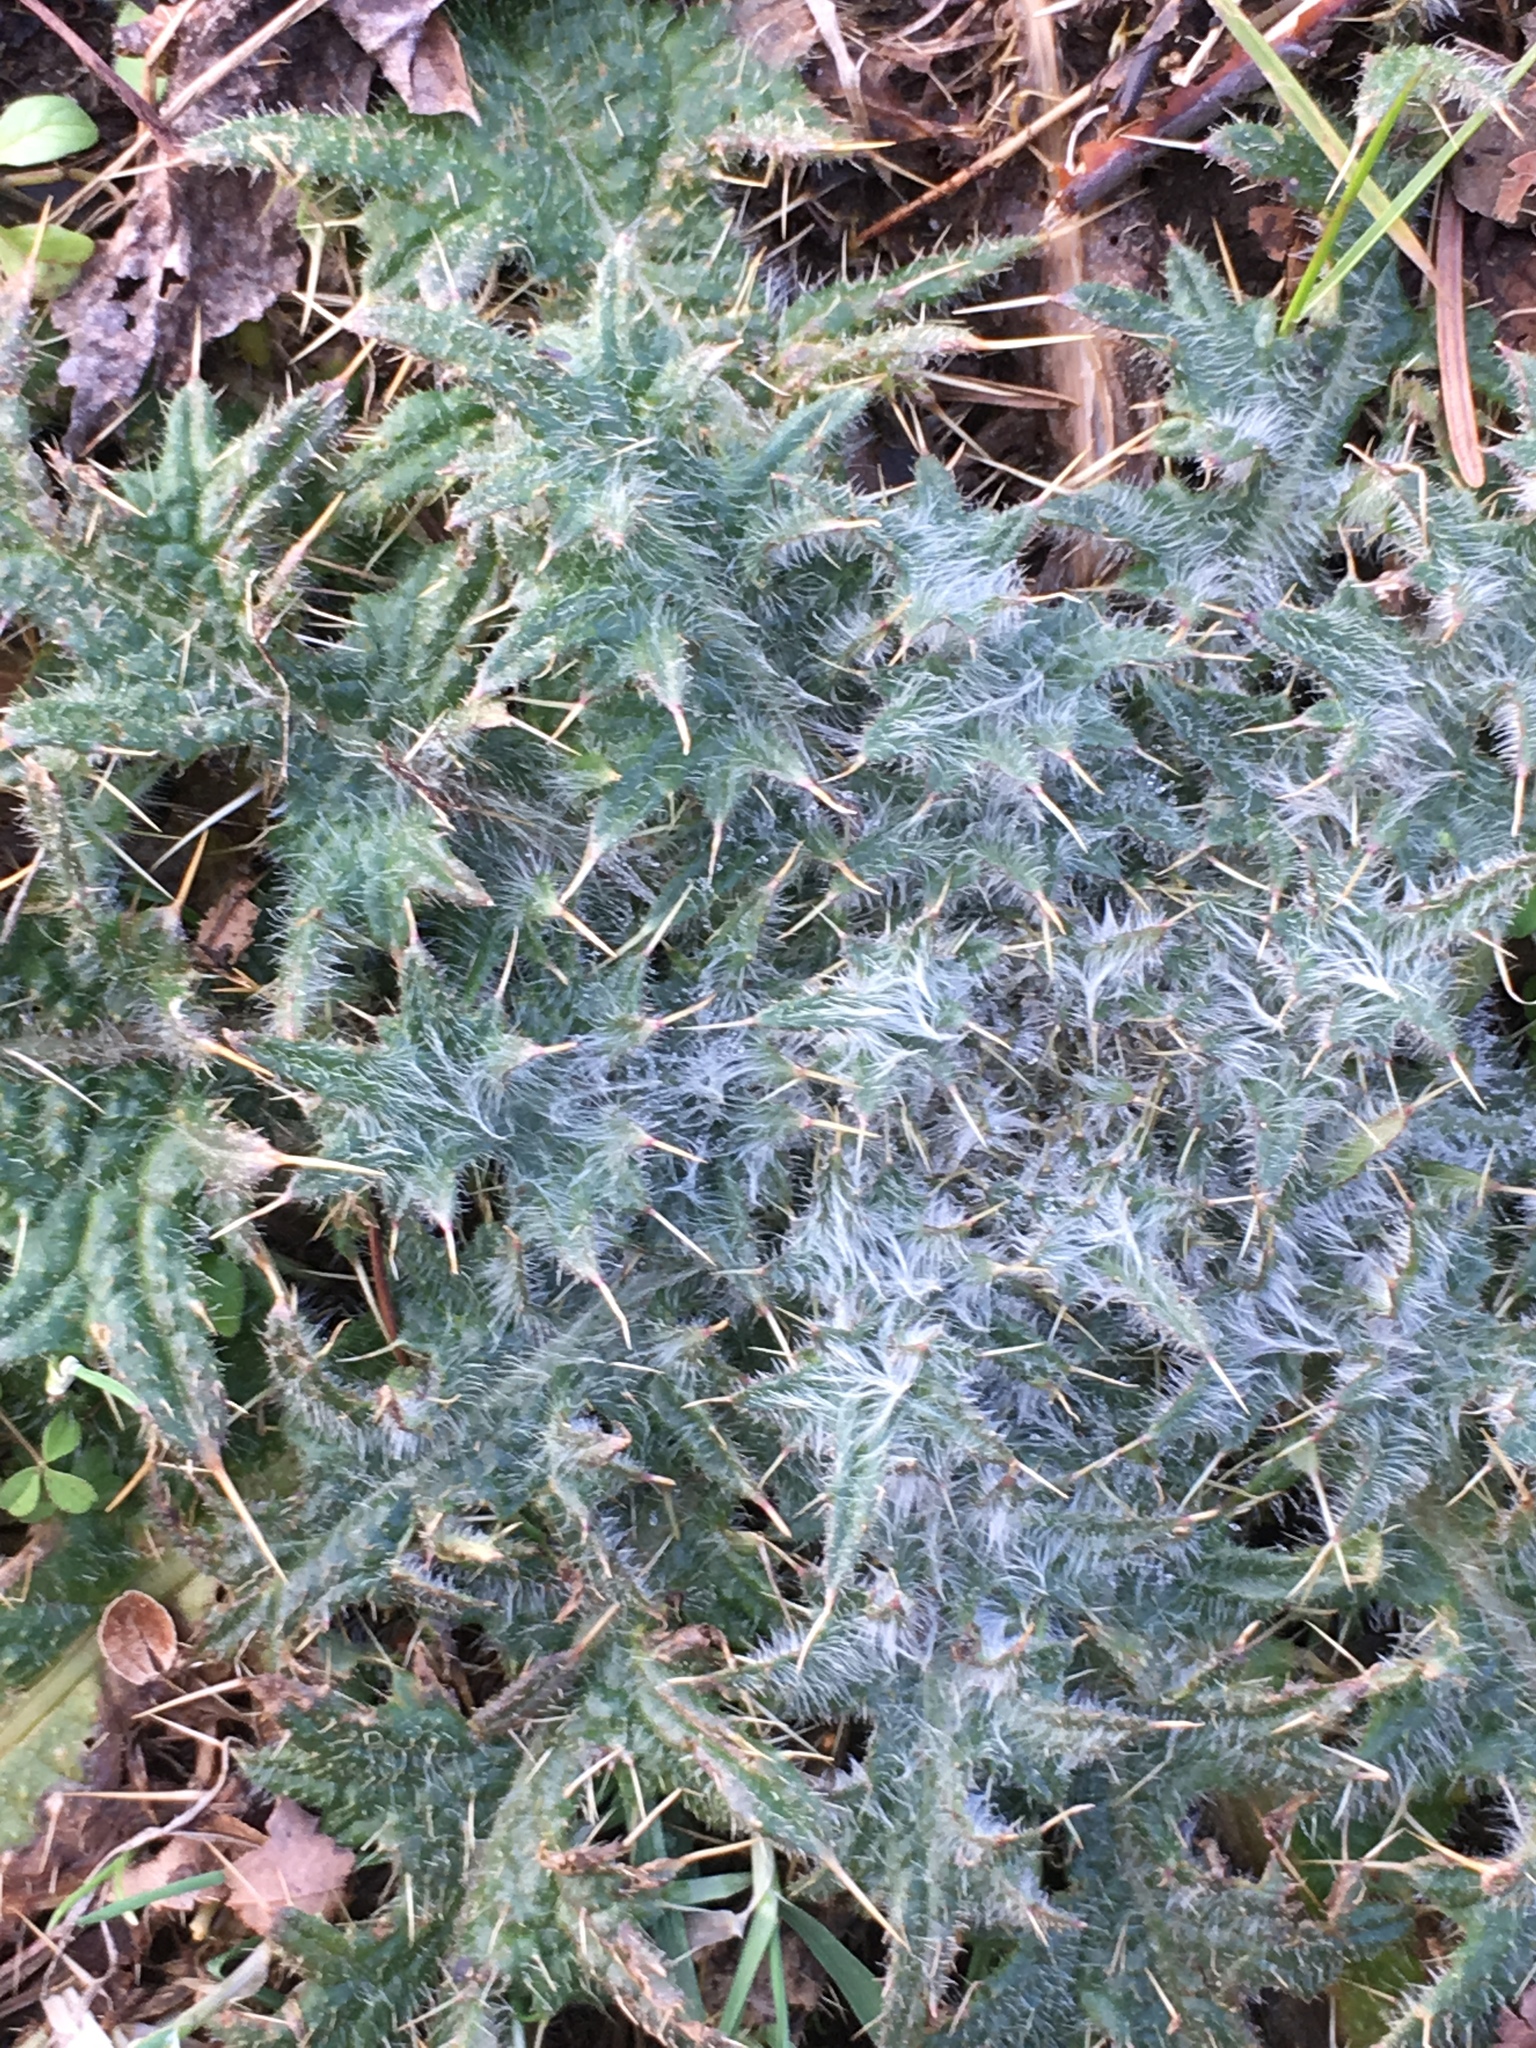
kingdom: Plantae
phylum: Tracheophyta
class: Magnoliopsida
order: Asterales
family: Asteraceae
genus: Cirsium
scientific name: Cirsium vulgare
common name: Bull thistle
